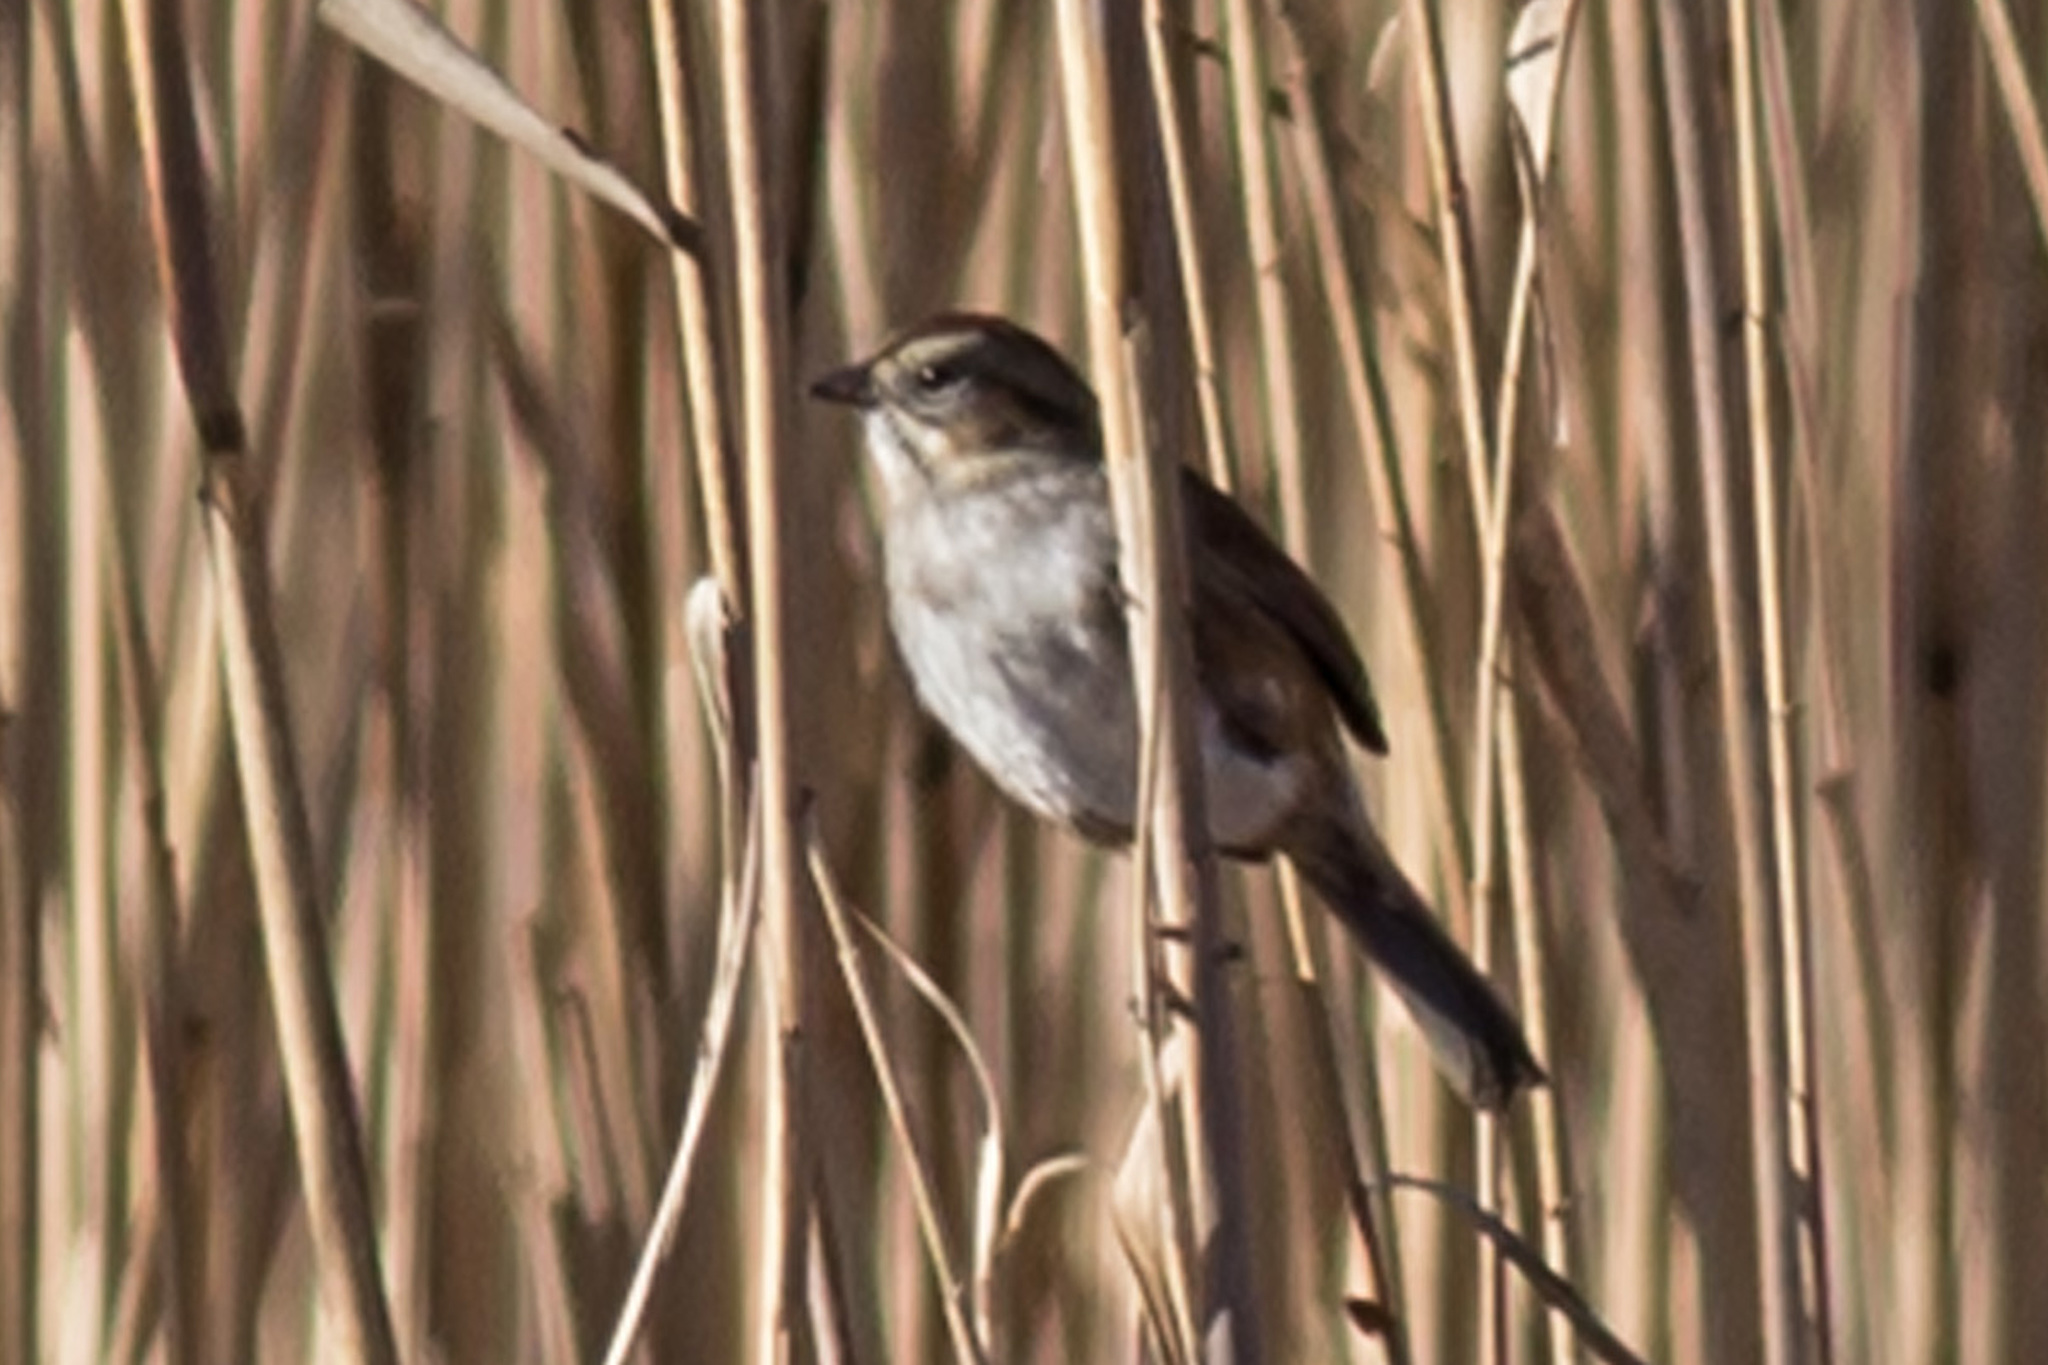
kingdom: Animalia
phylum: Chordata
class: Aves
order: Passeriformes
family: Passerellidae
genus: Melospiza
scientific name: Melospiza georgiana
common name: Swamp sparrow
